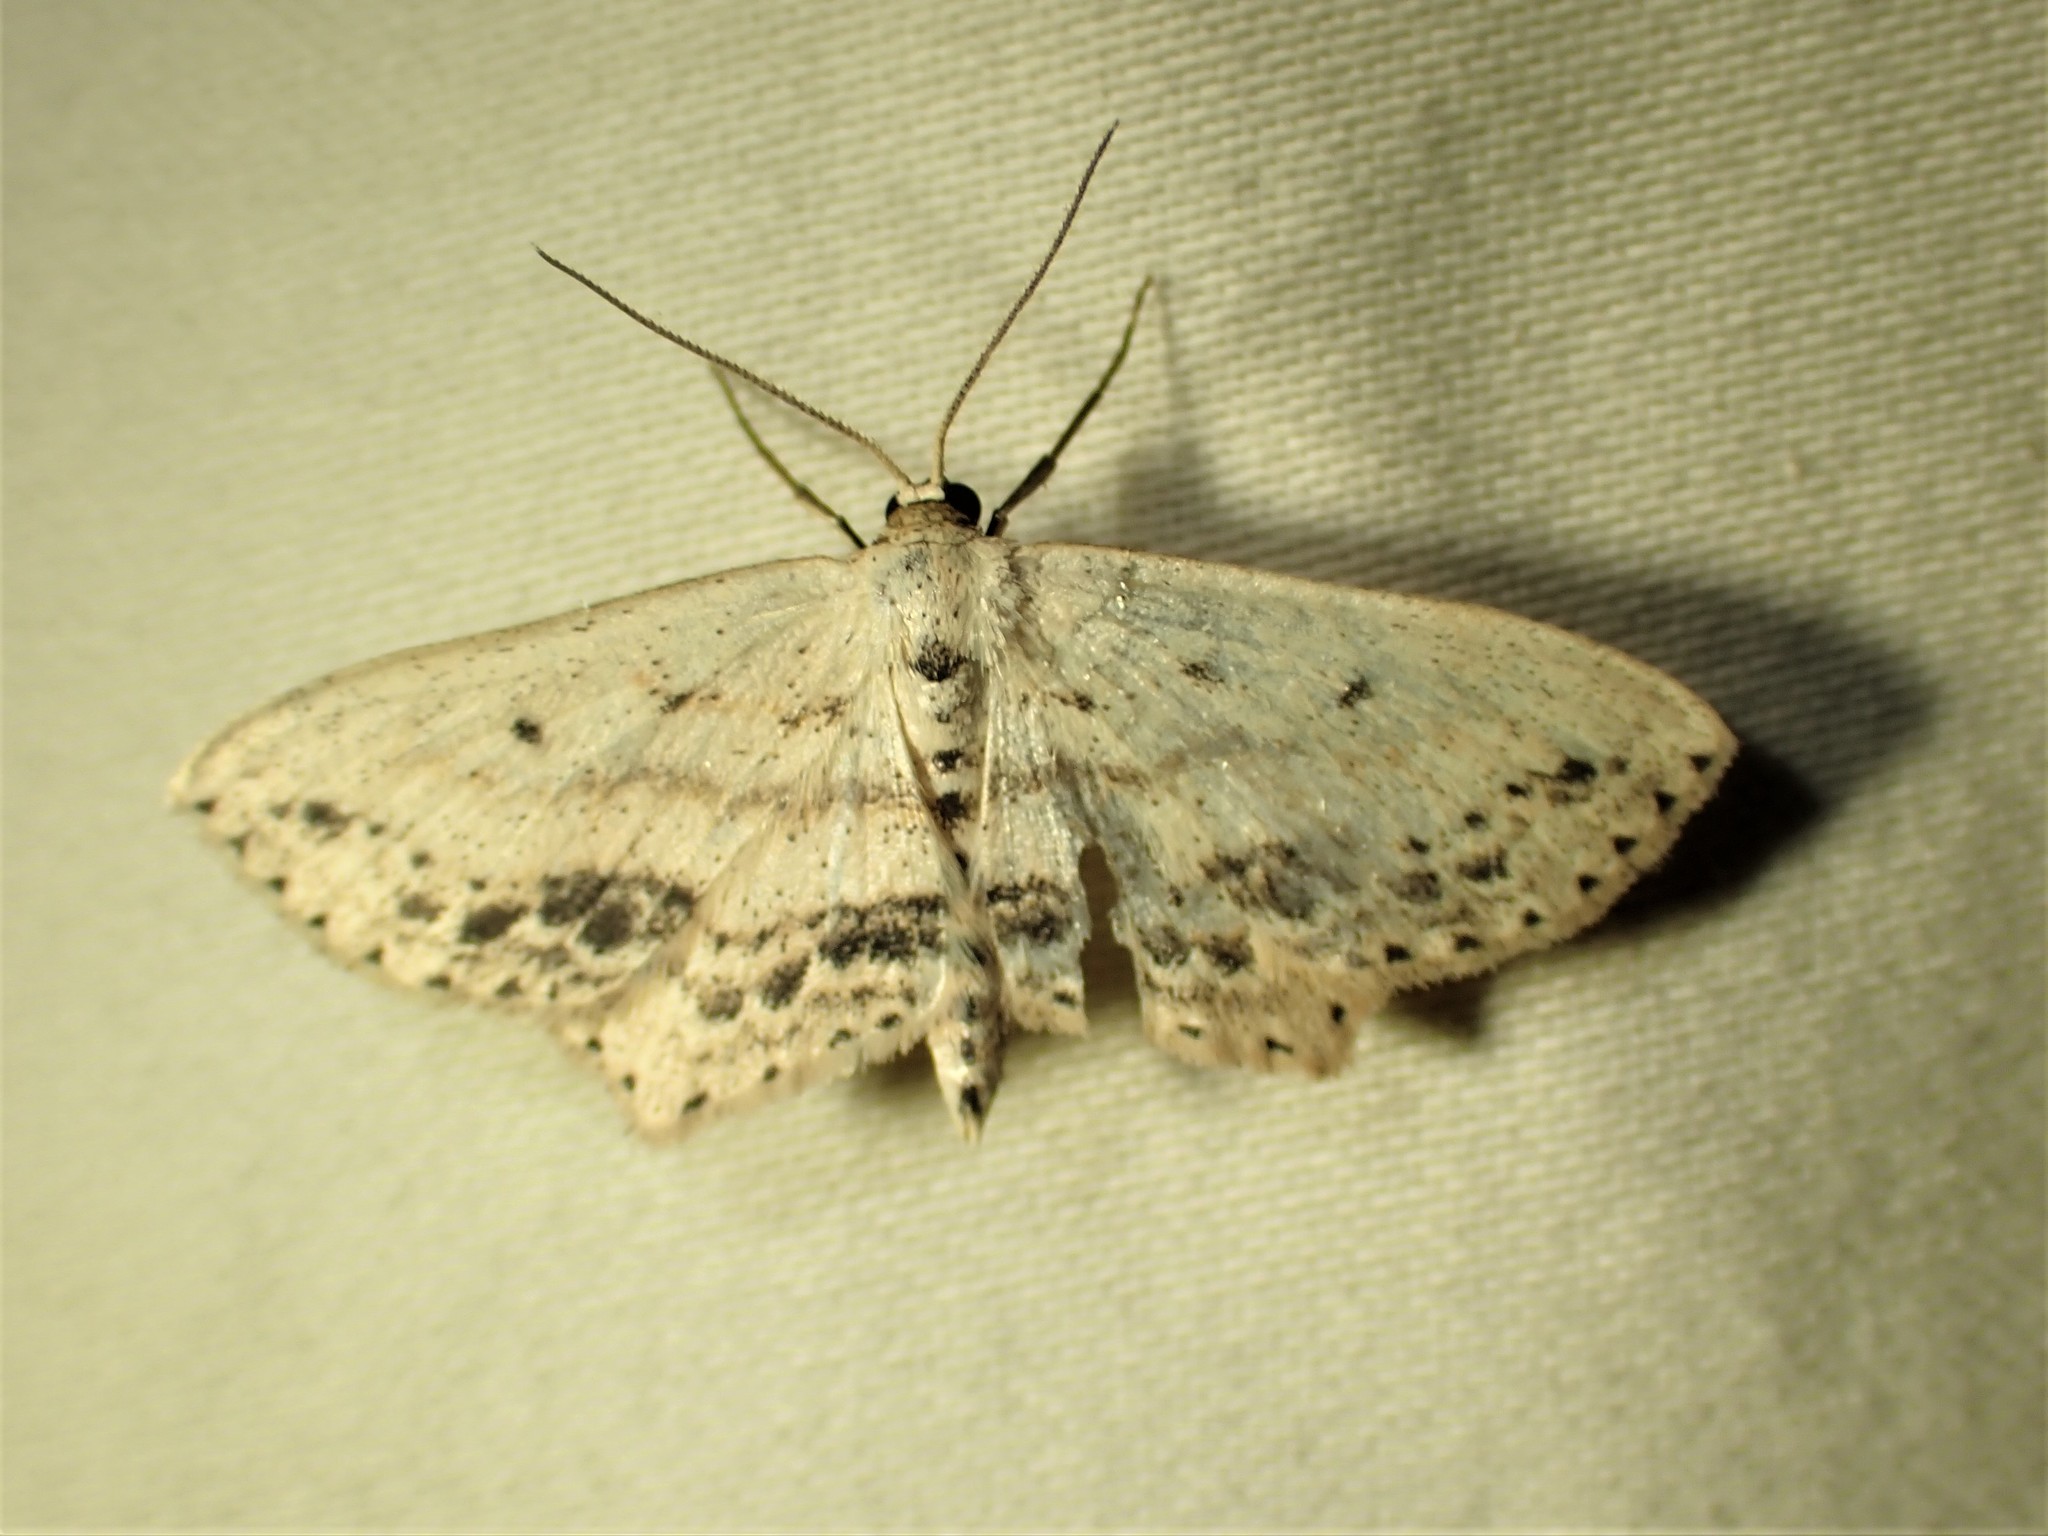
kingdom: Animalia
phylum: Arthropoda
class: Insecta
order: Lepidoptera
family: Geometridae
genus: Scopula
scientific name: Scopula cacuminaria
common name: Frosted tan wave
